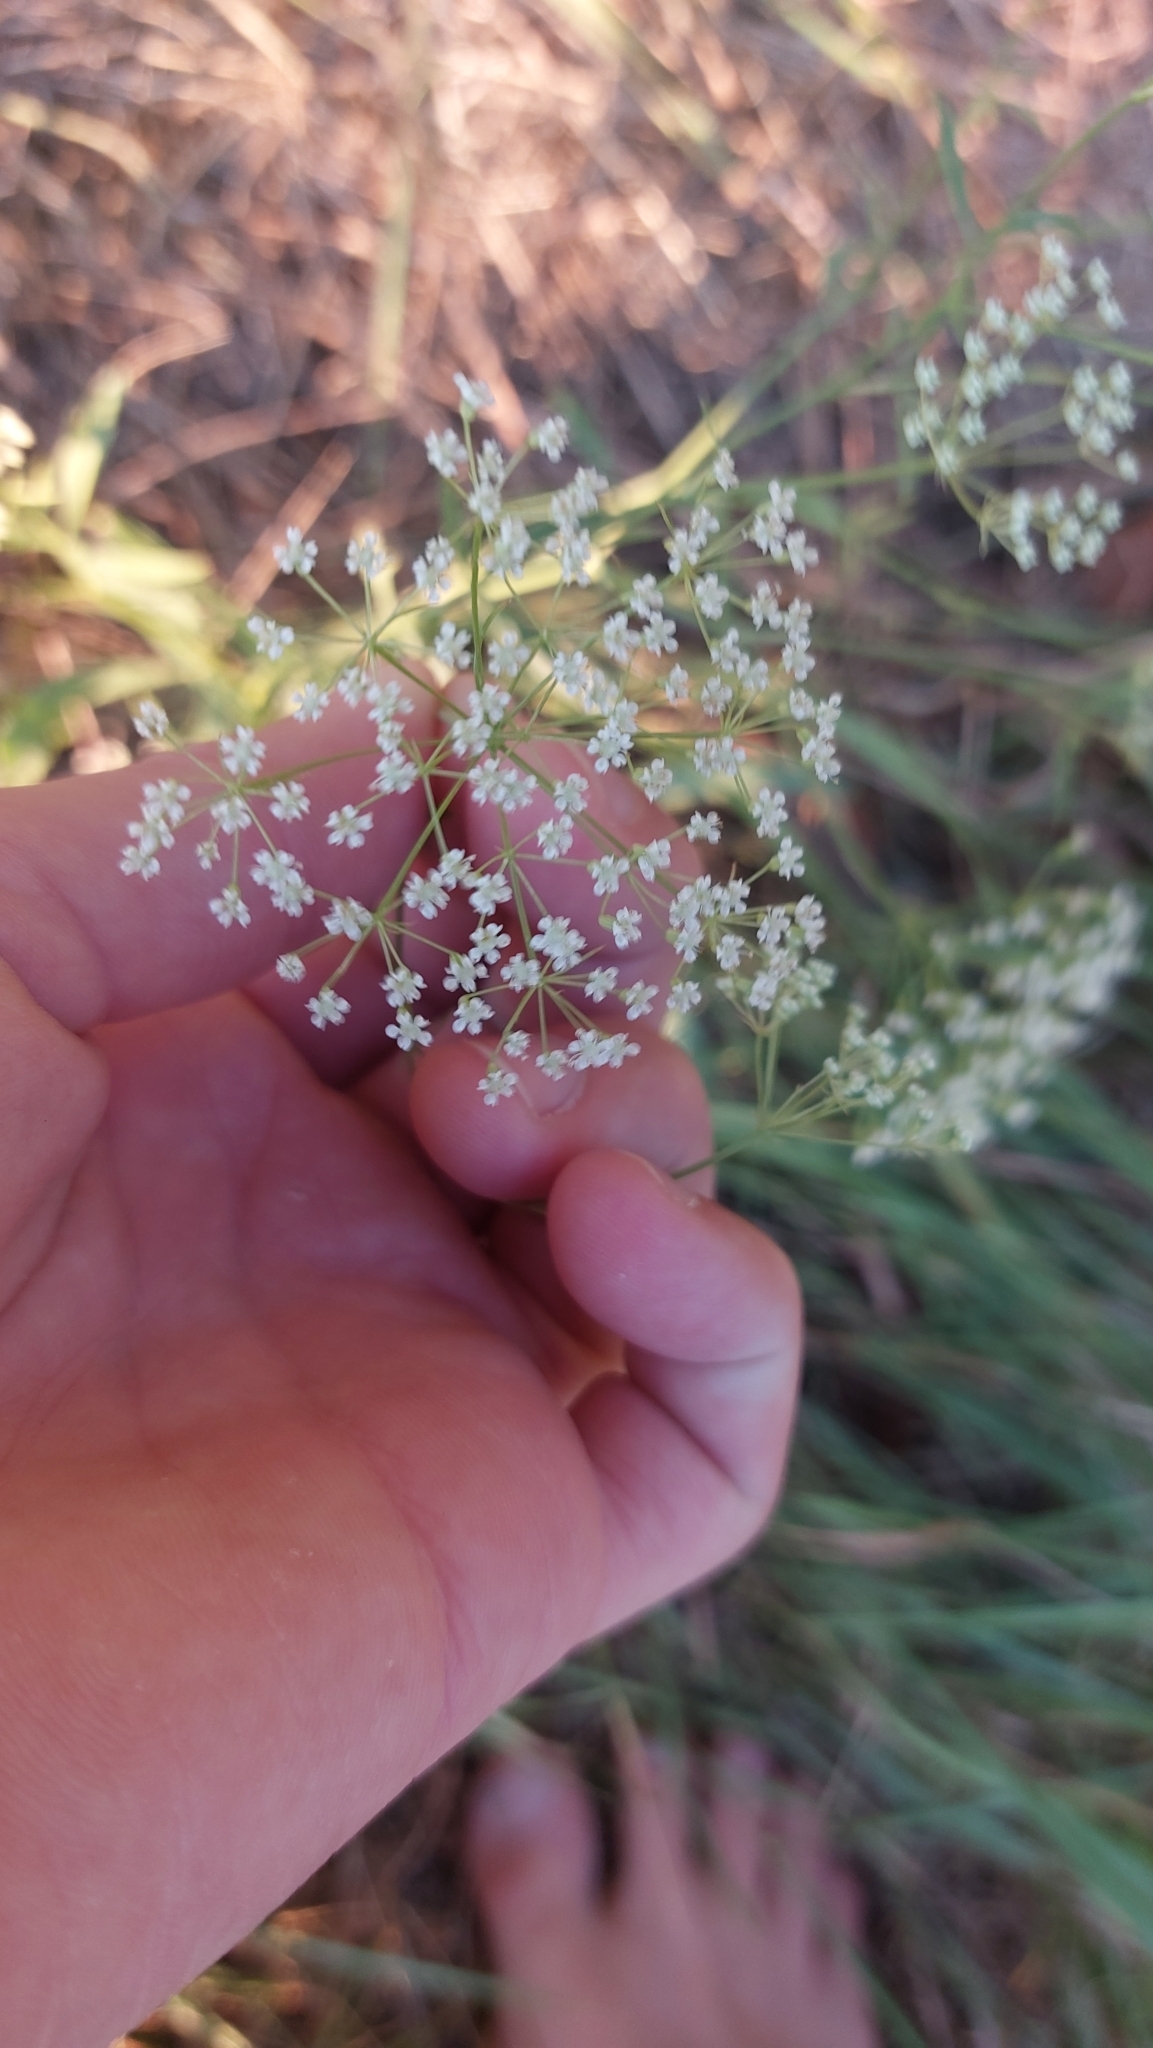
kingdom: Plantae
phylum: Tracheophyta
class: Magnoliopsida
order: Apiales
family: Apiaceae
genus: Falcaria
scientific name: Falcaria vulgaris
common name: Longleaf
